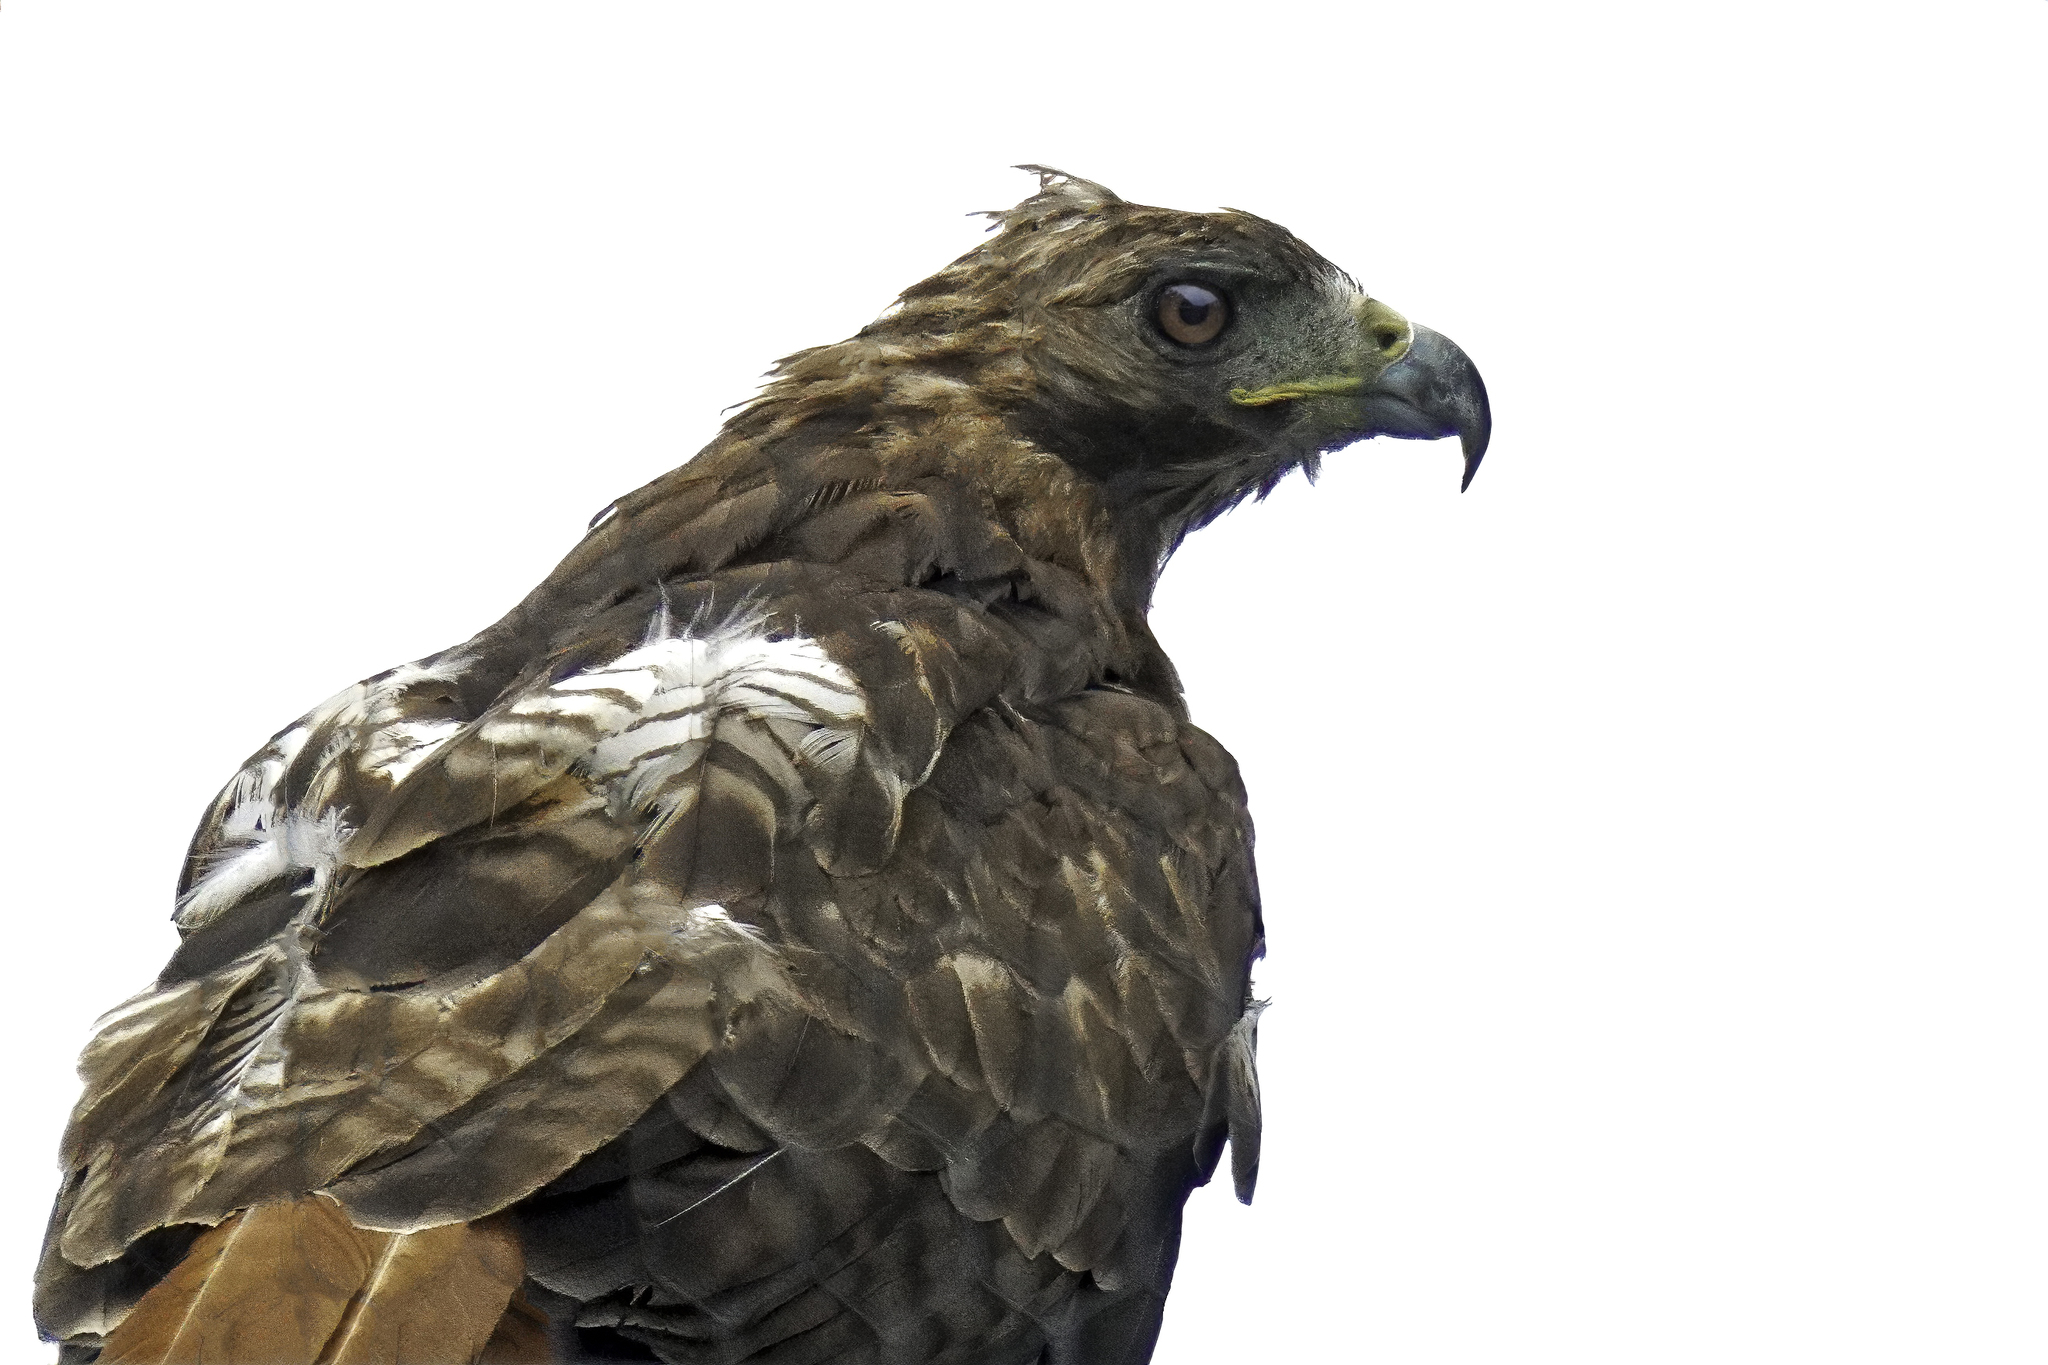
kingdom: Animalia
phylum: Chordata
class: Aves
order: Accipitriformes
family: Accipitridae
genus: Buteo
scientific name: Buteo jamaicensis
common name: Red-tailed hawk
